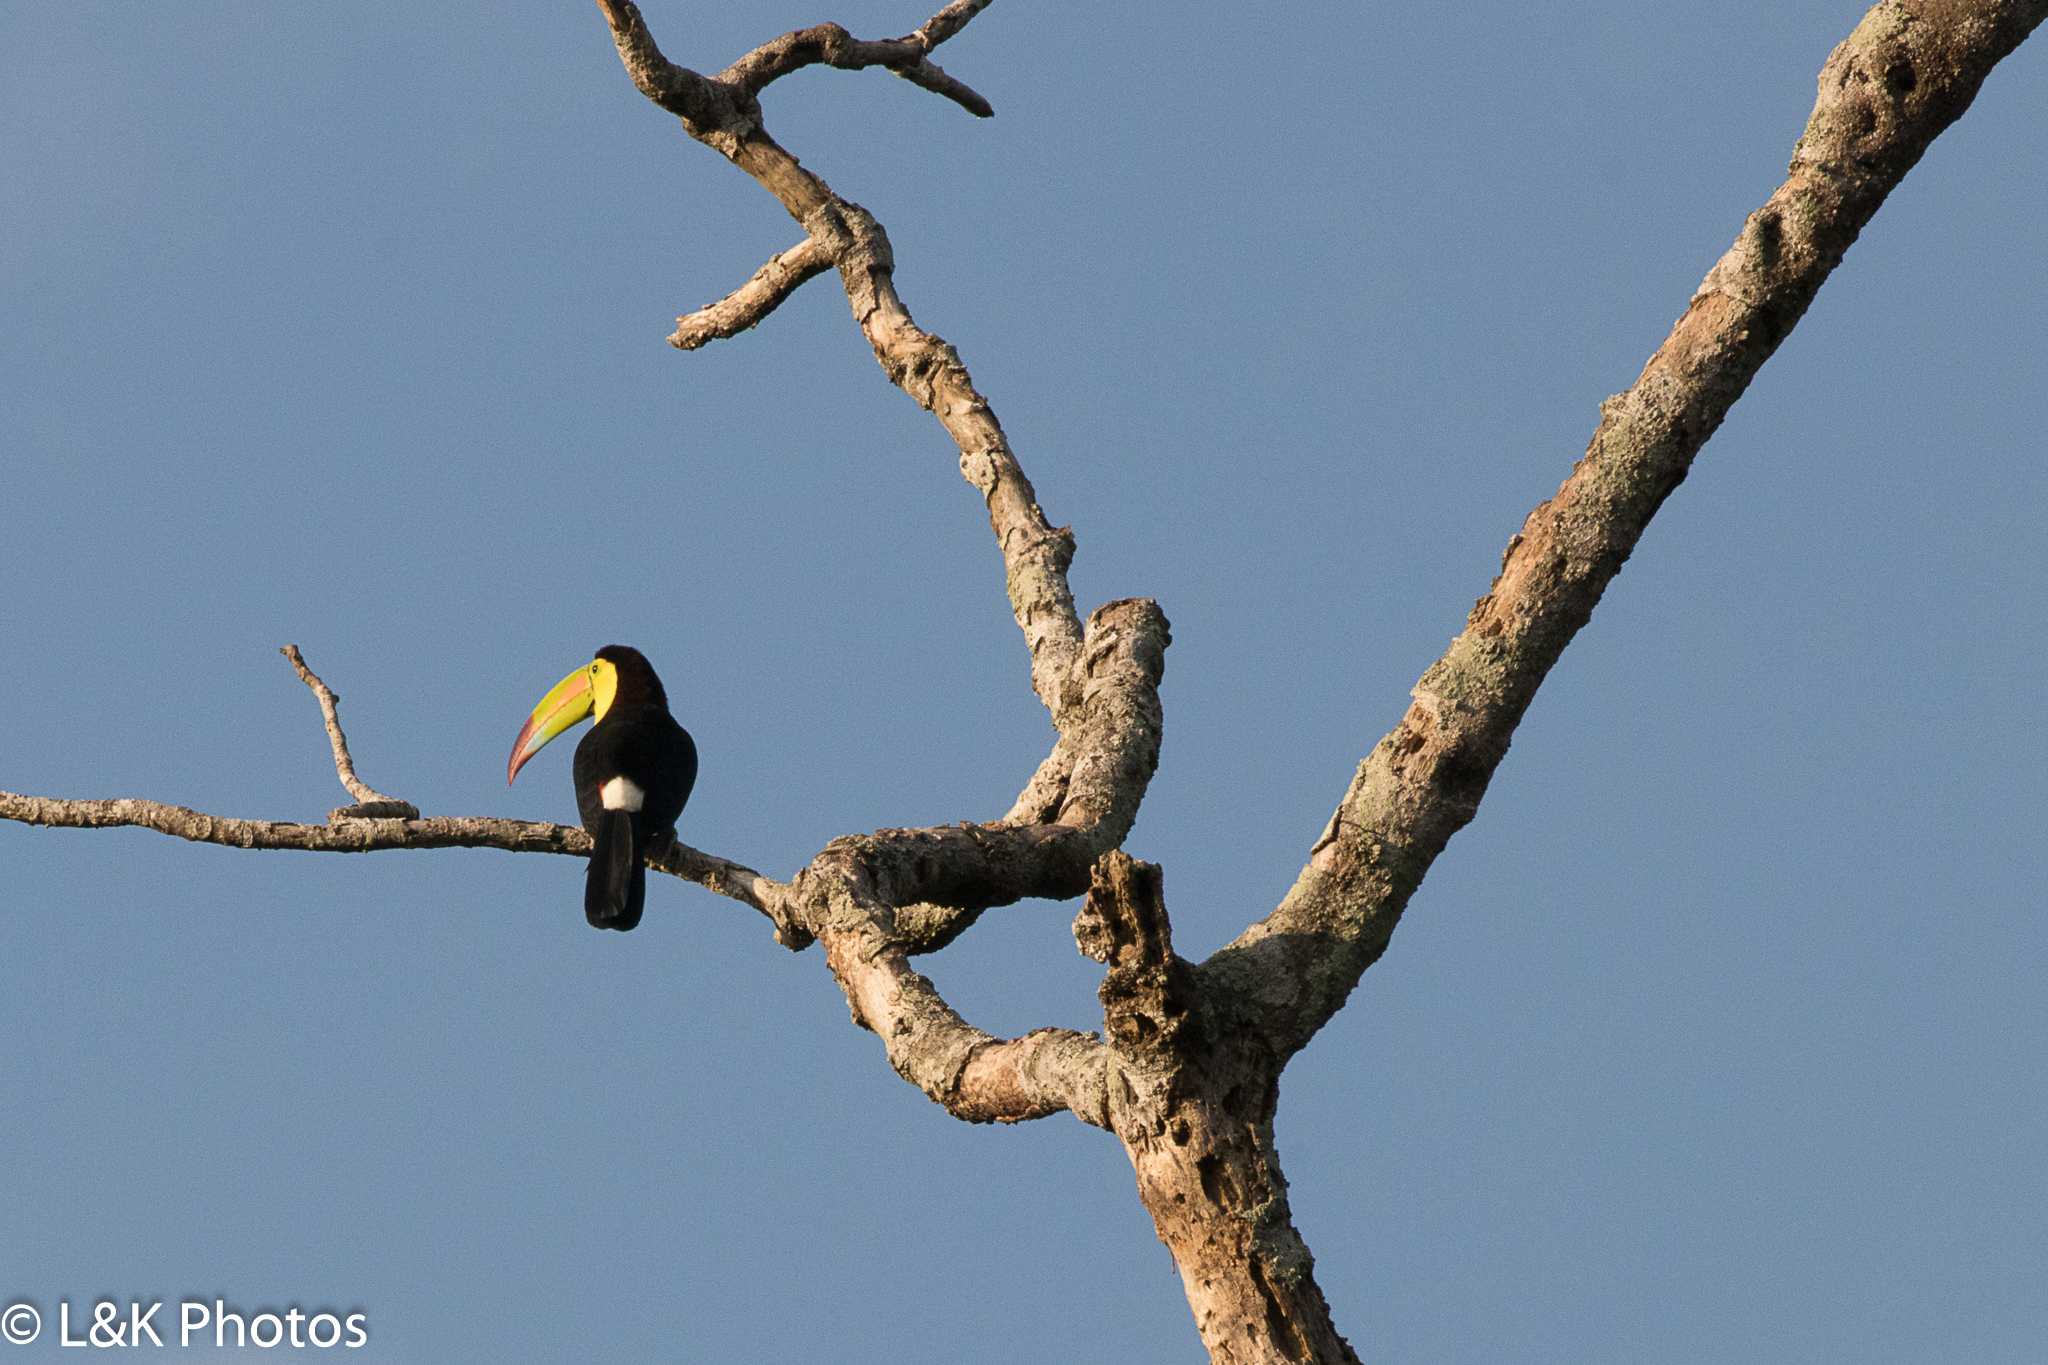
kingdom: Animalia
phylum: Chordata
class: Aves
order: Piciformes
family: Ramphastidae
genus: Ramphastos
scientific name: Ramphastos sulfuratus
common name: Keel-billed toucan
